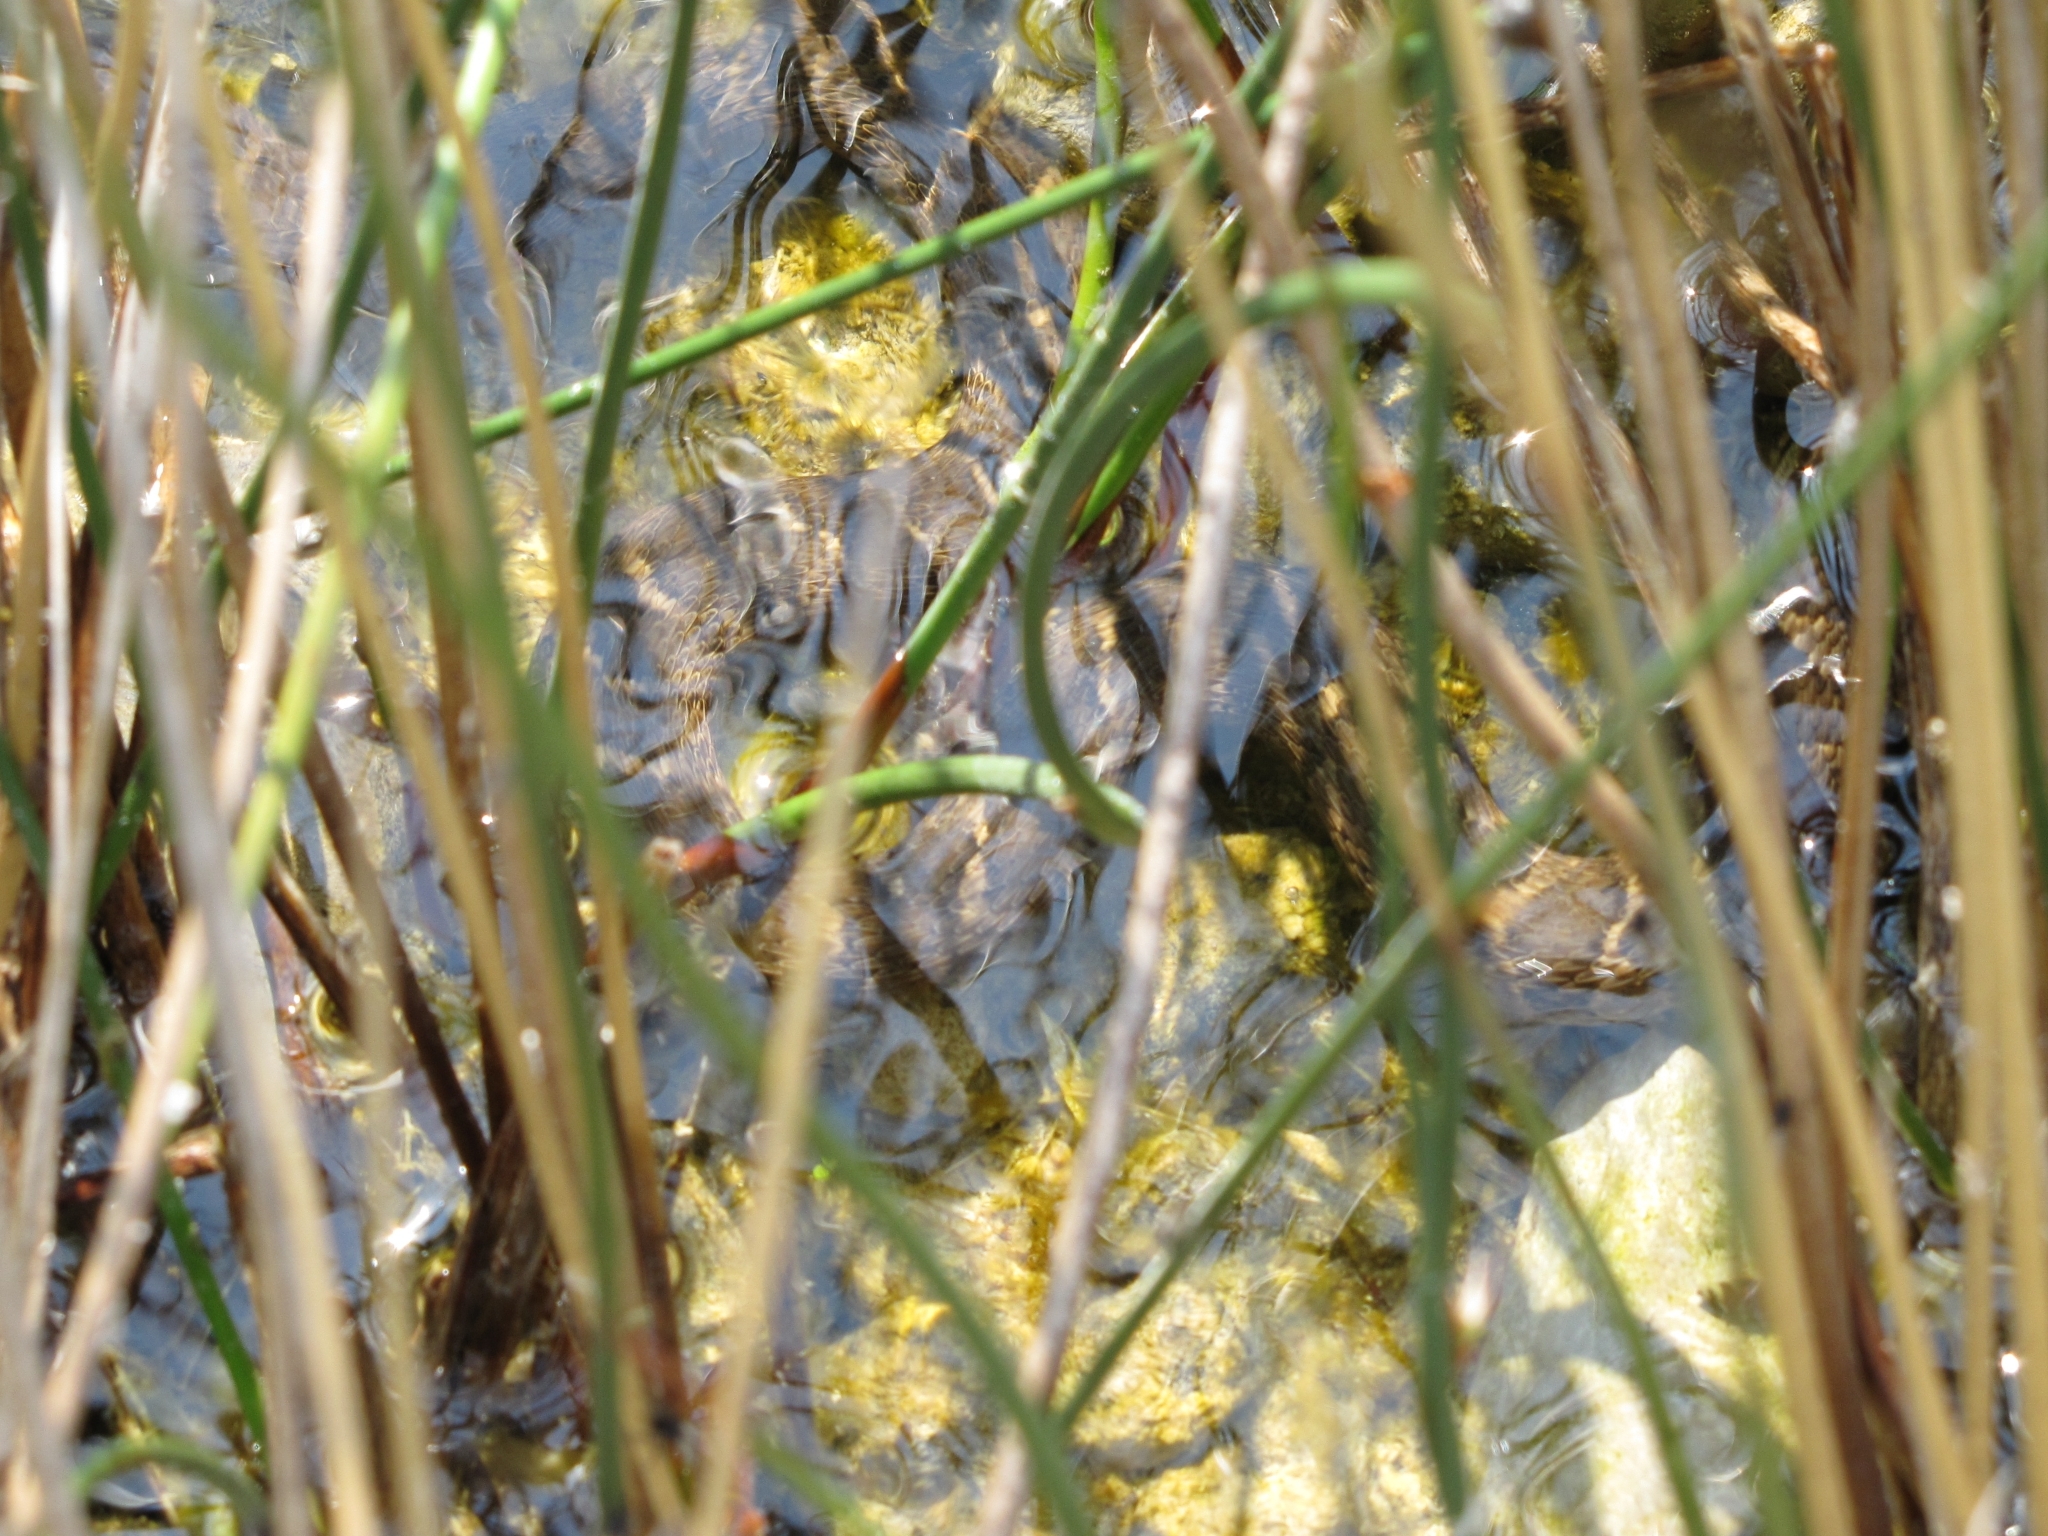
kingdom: Animalia
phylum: Chordata
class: Squamata
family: Colubridae
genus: Nerodia
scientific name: Nerodia sipedon
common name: Northern water snake
